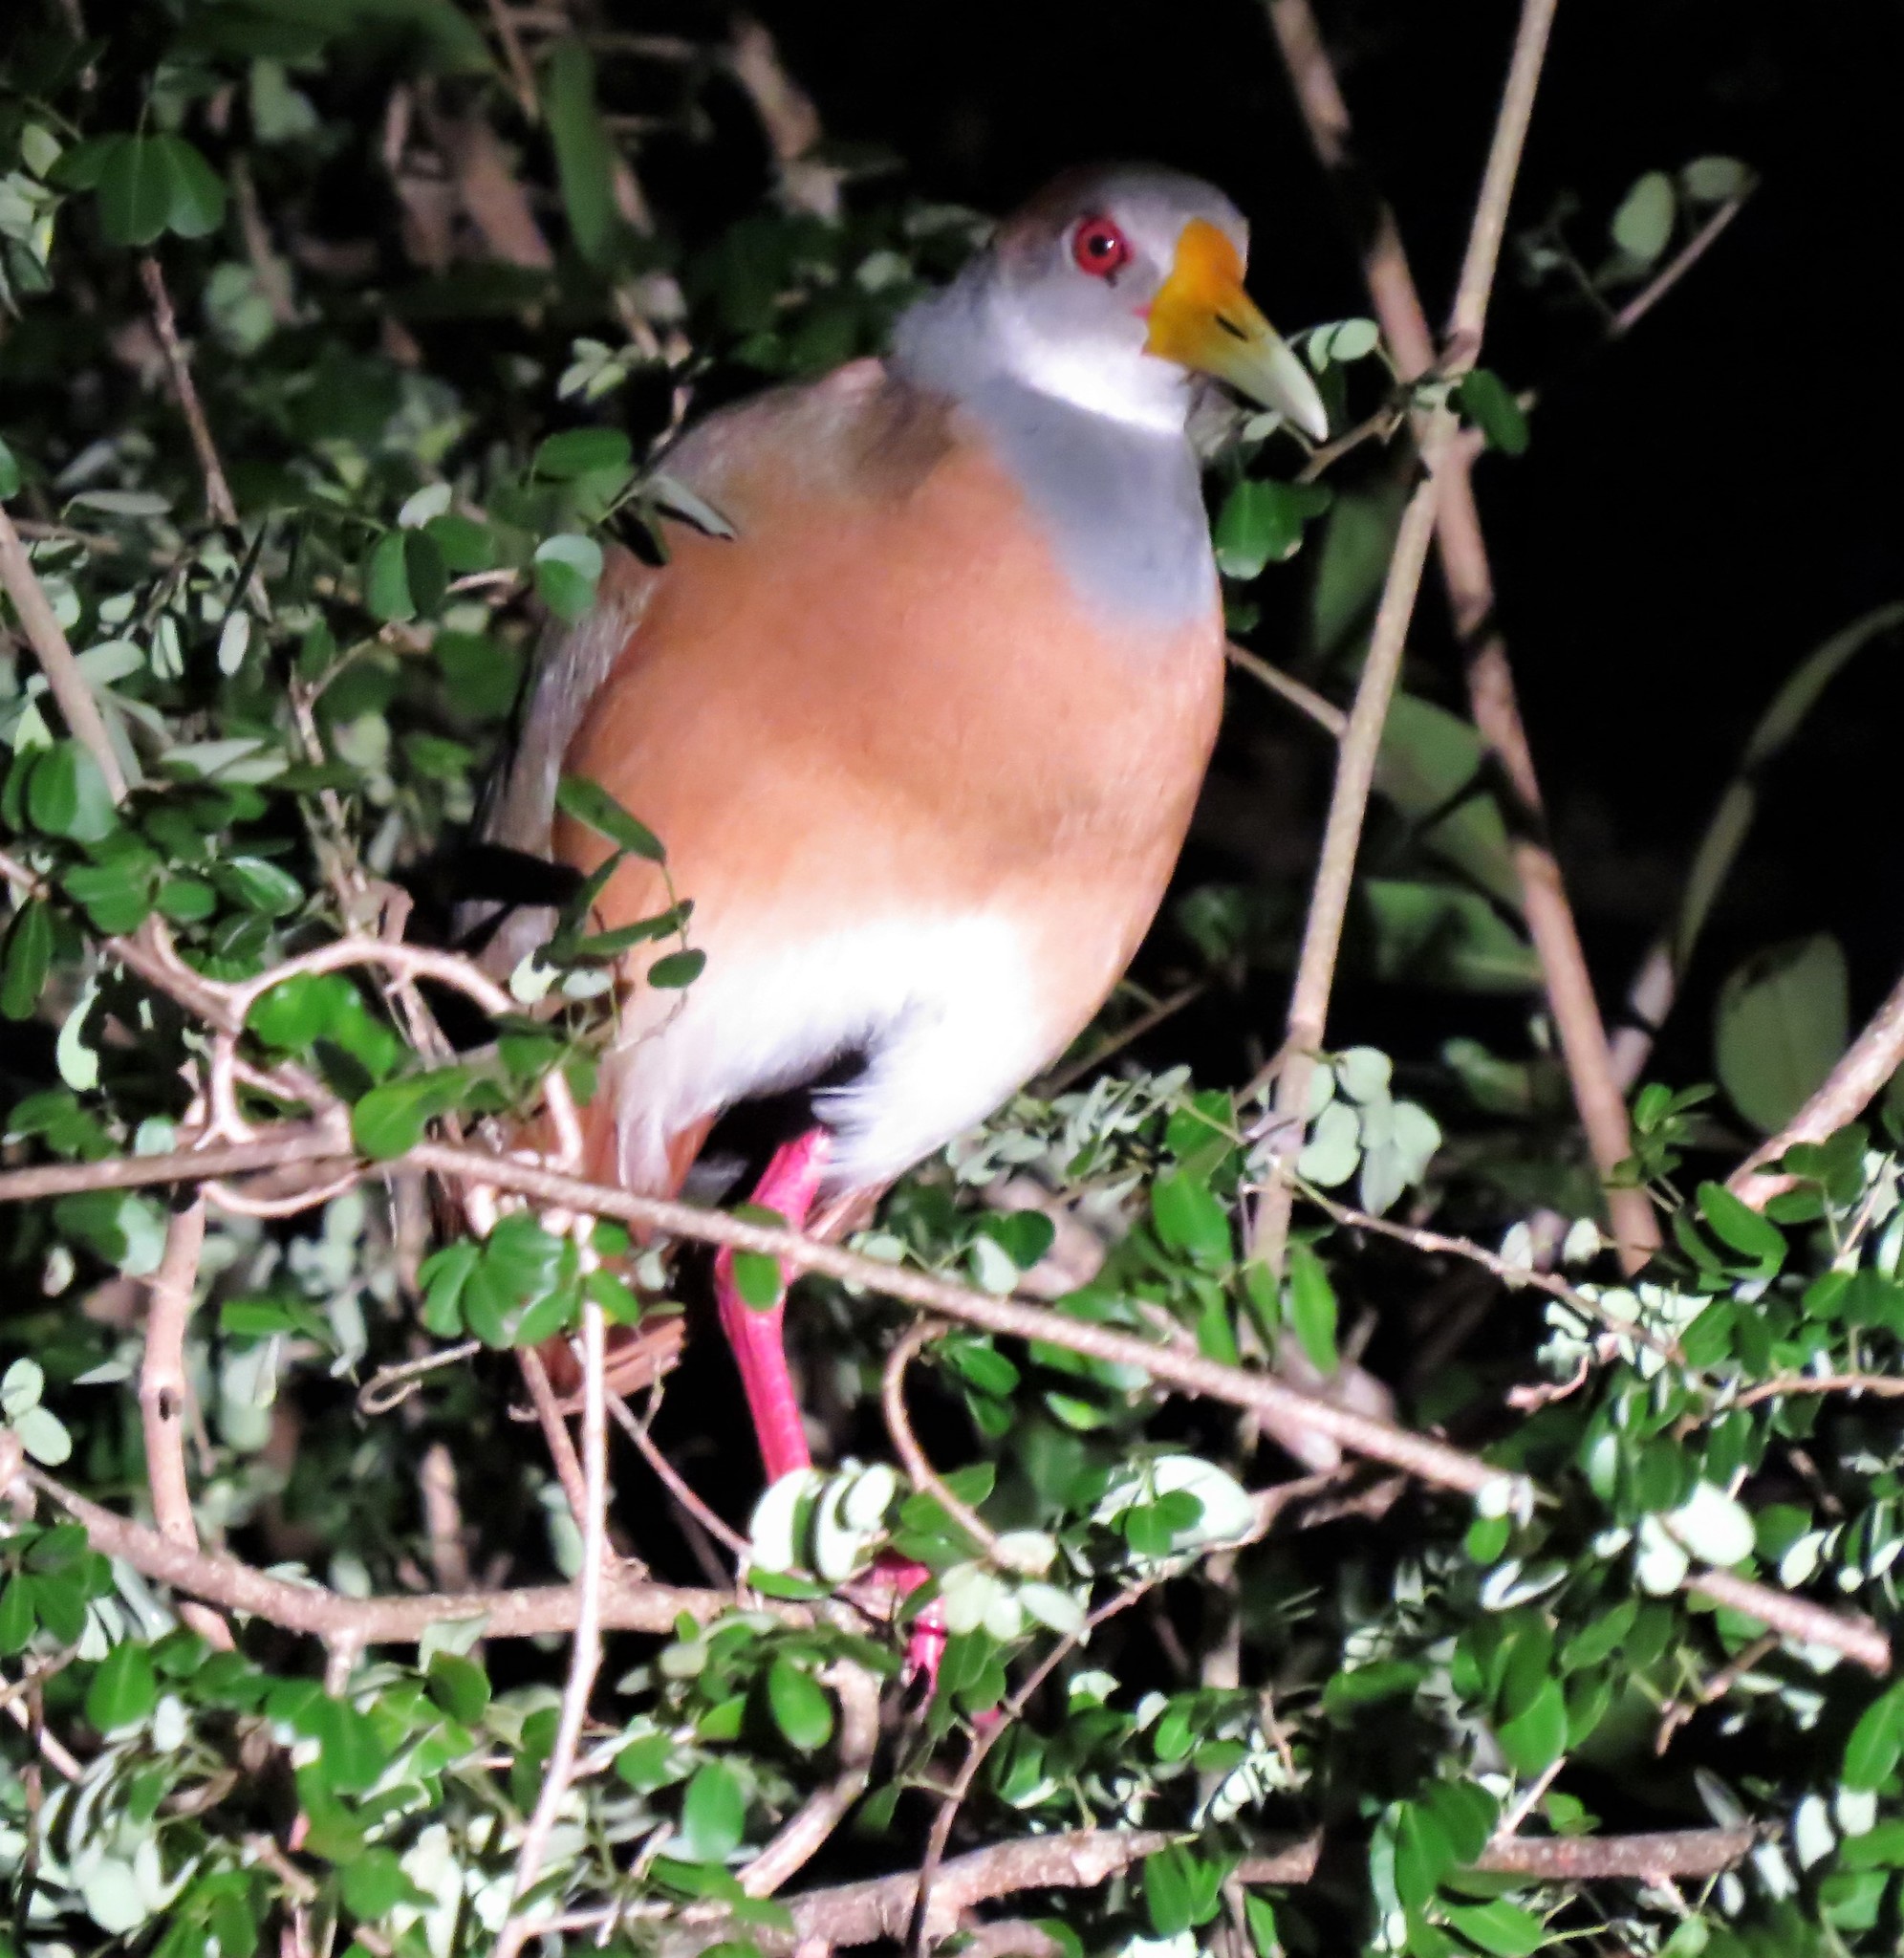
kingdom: Animalia
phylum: Chordata
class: Aves
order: Gruiformes
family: Rallidae
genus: Aramides
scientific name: Aramides albiventris
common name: Russet-naped wood-rail
